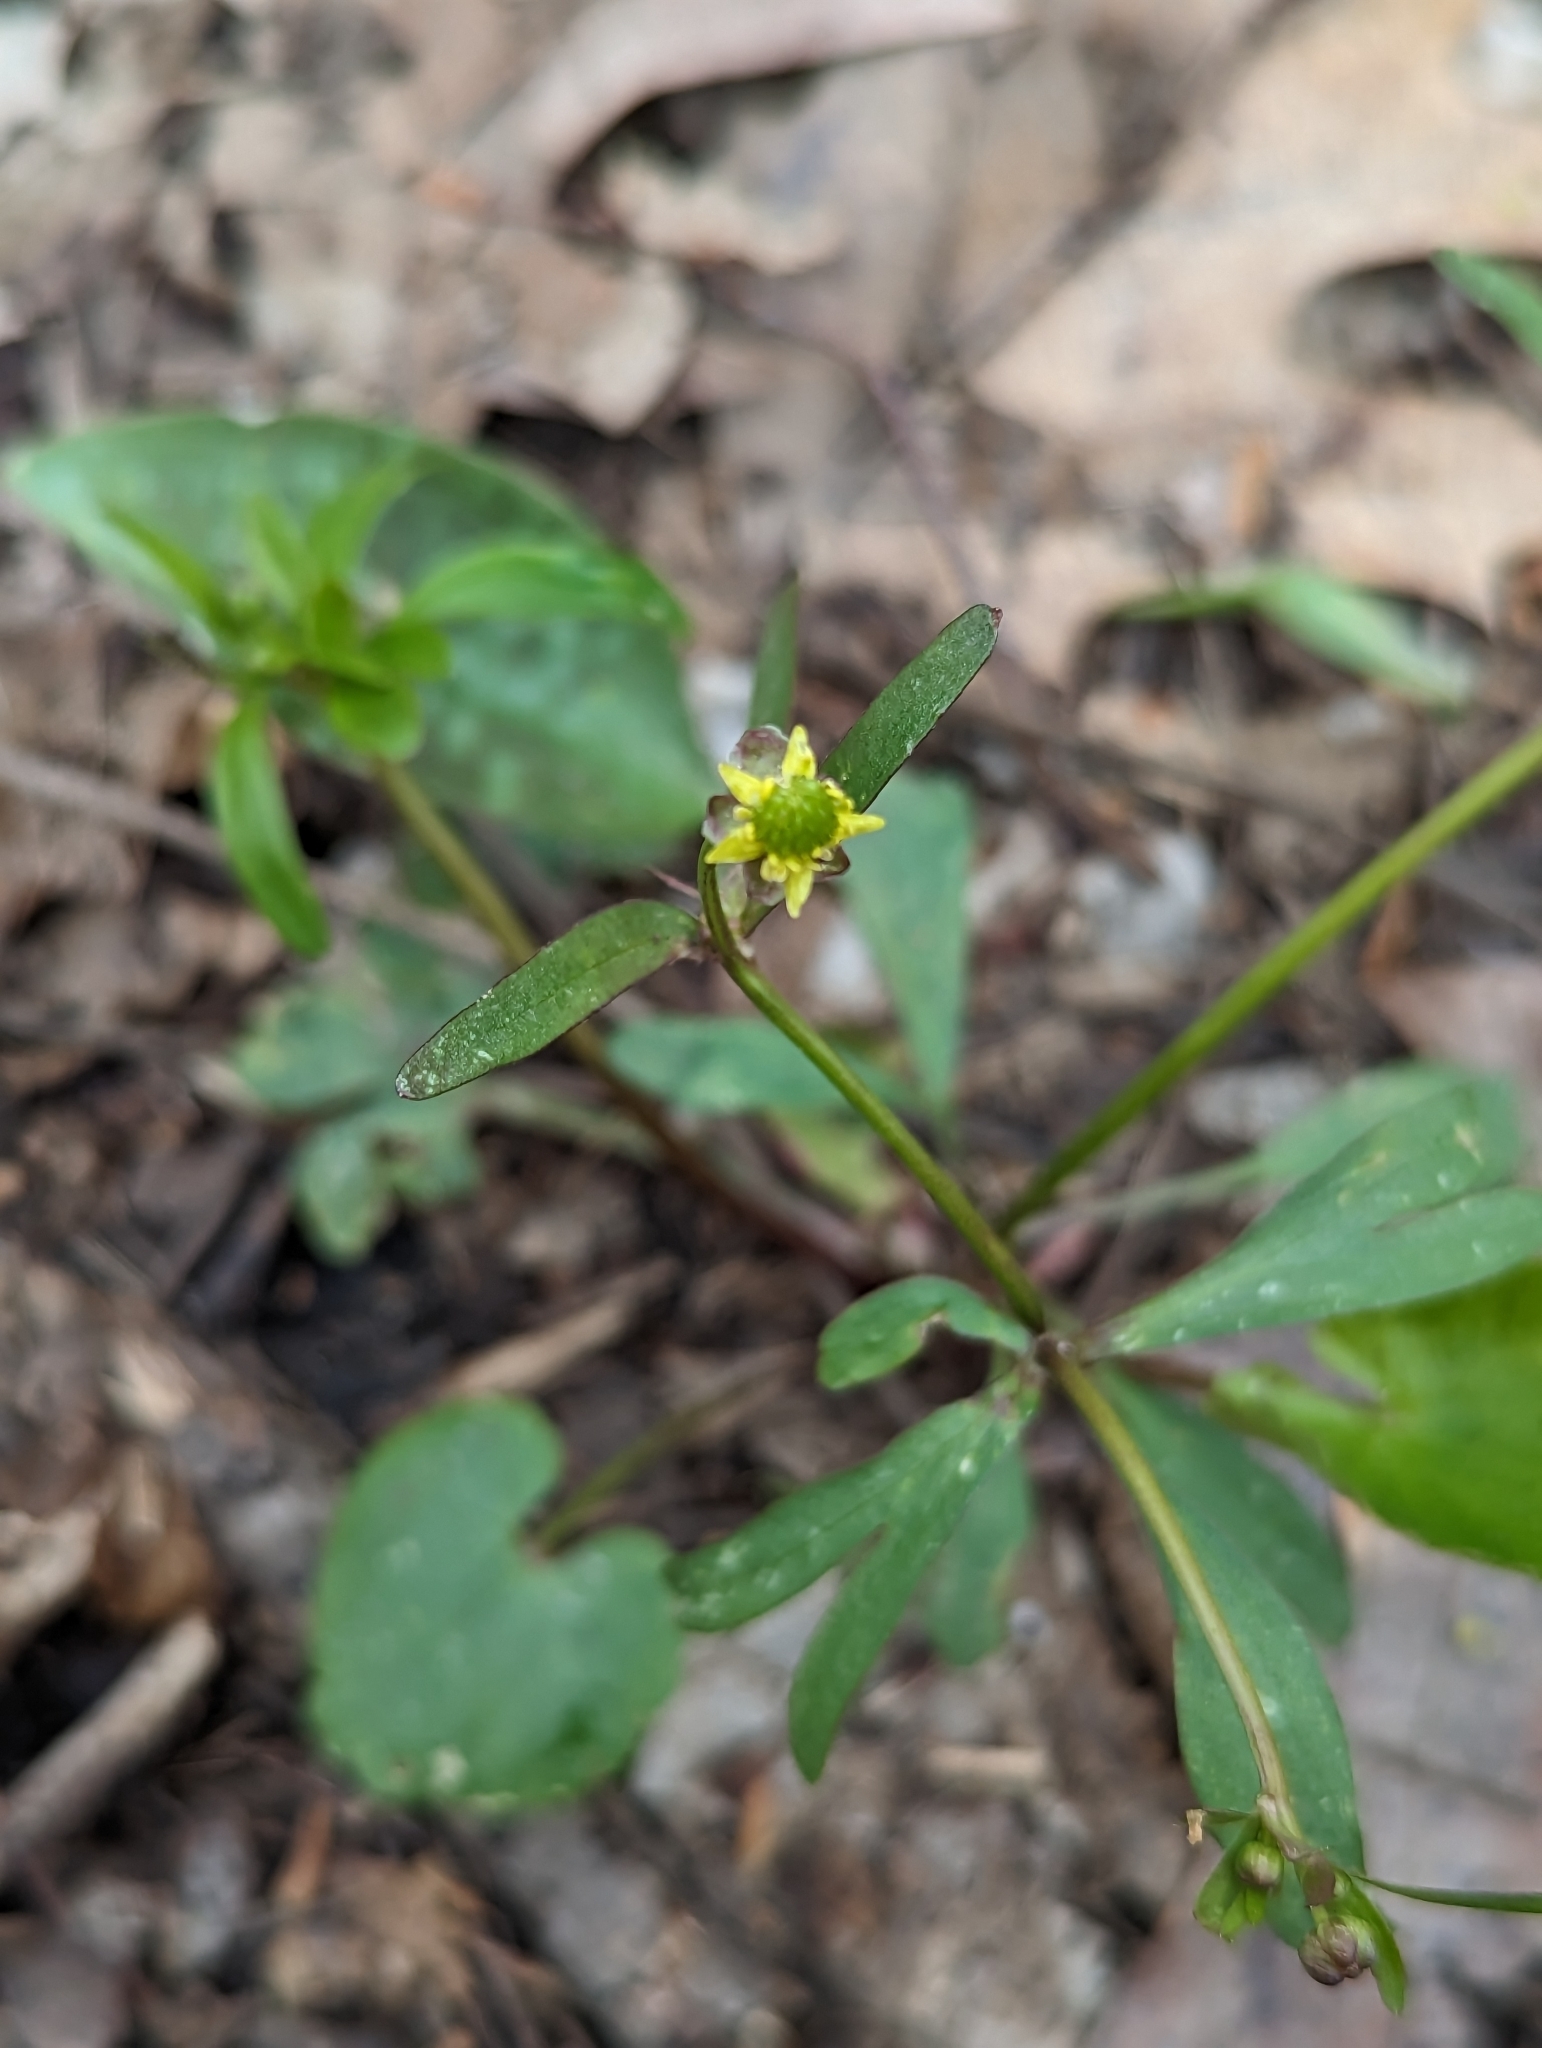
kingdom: Plantae
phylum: Tracheophyta
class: Magnoliopsida
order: Ranunculales
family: Ranunculaceae
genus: Ranunculus
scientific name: Ranunculus abortivus
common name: Early wood buttercup
